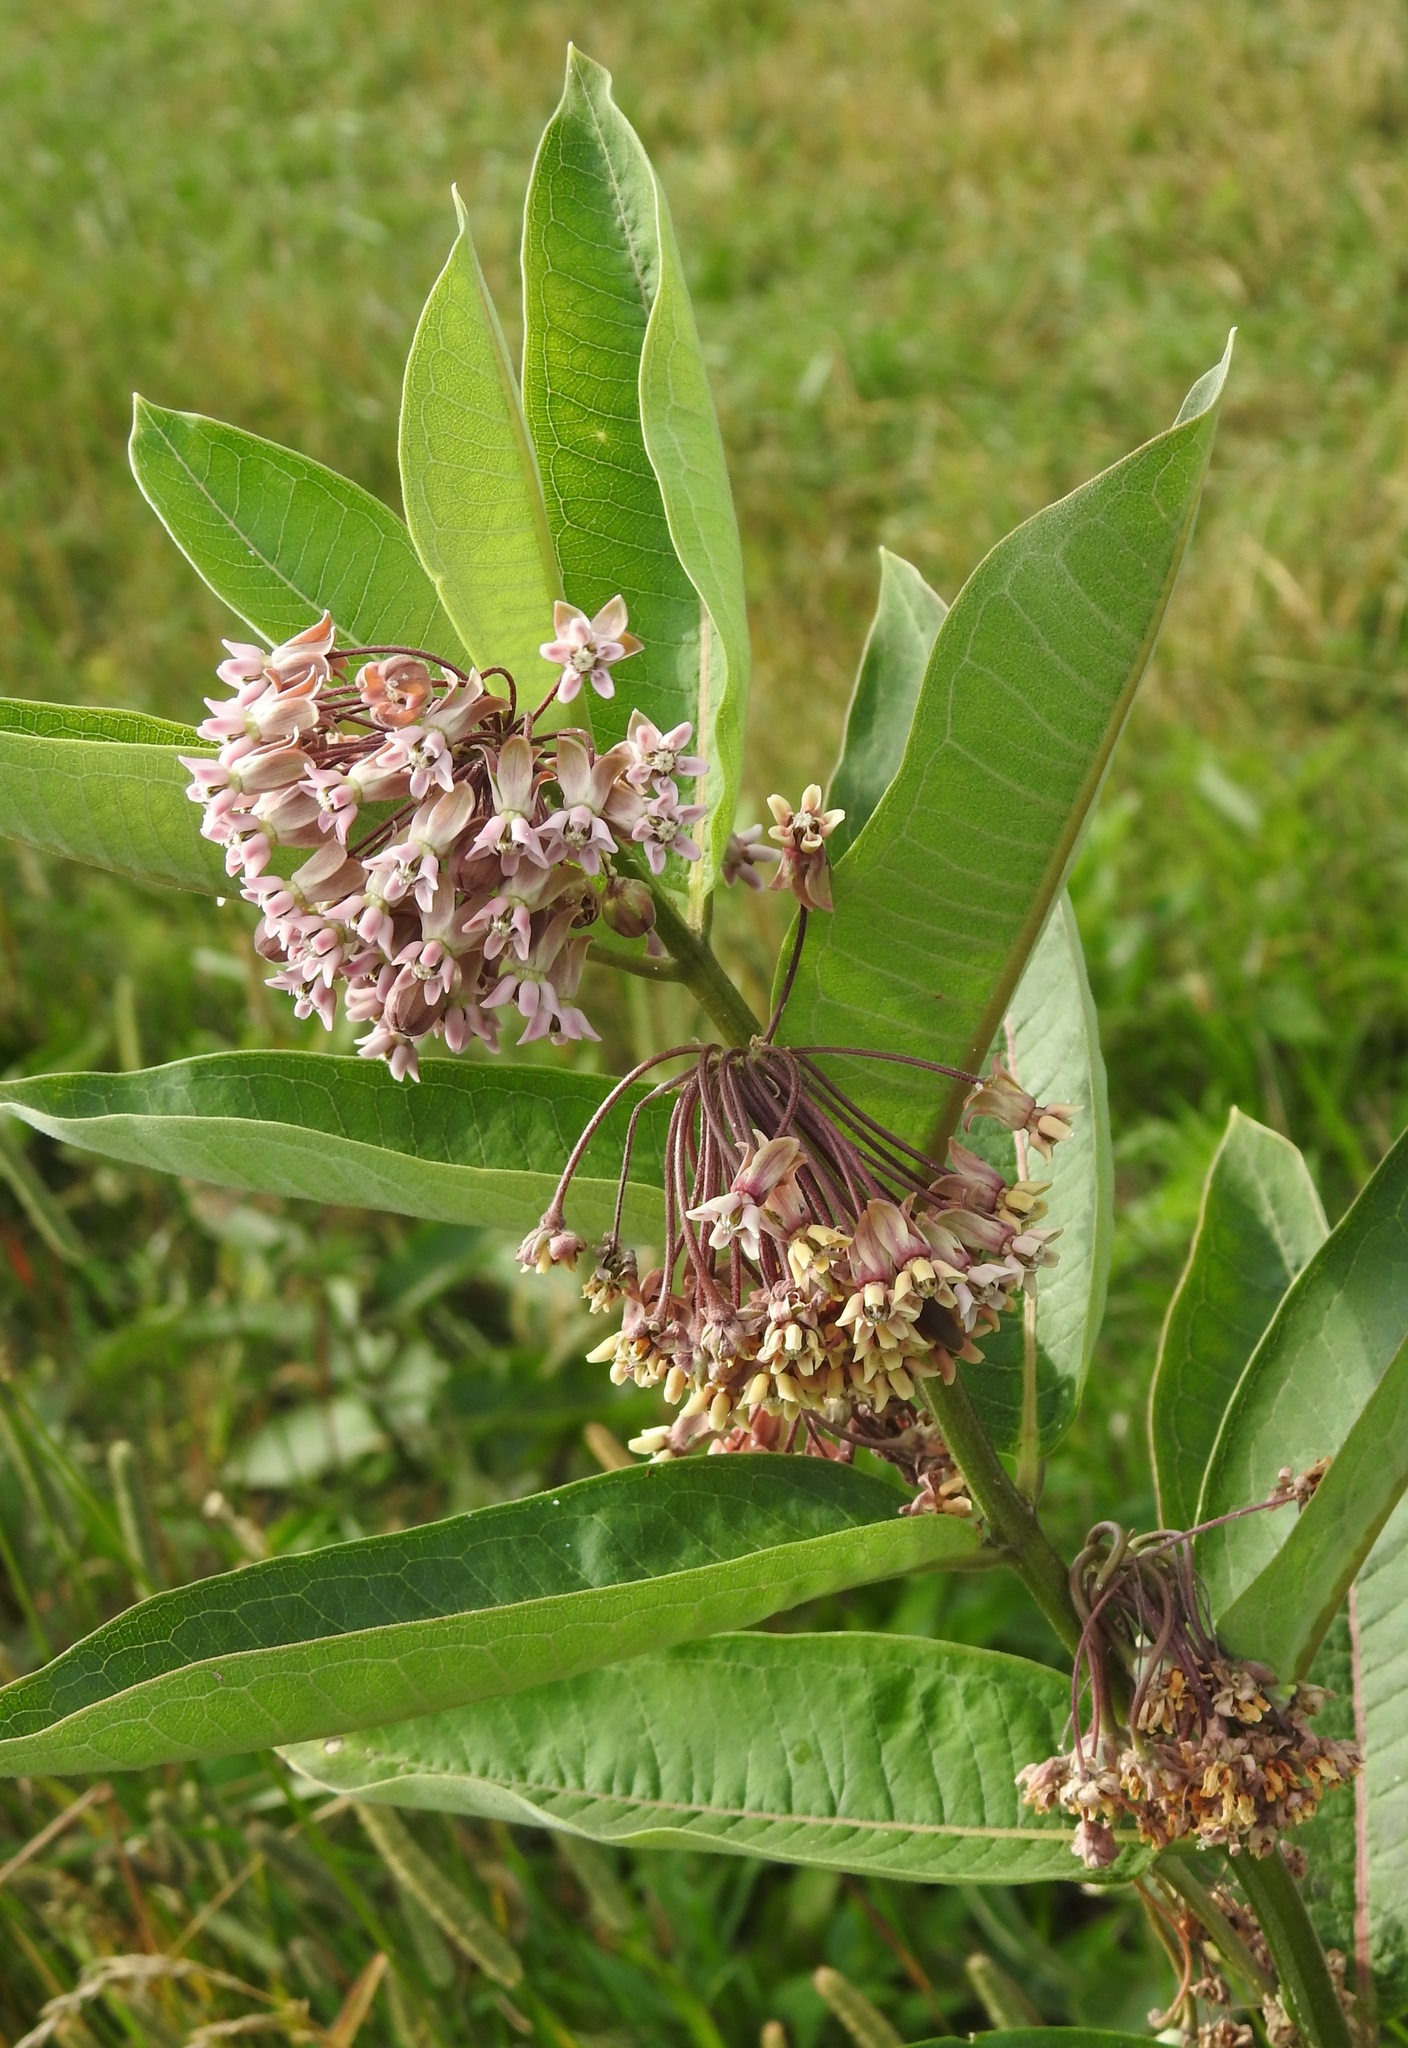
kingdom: Plantae
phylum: Tracheophyta
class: Magnoliopsida
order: Gentianales
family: Apocynaceae
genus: Asclepias
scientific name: Asclepias syriaca
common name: Common milkweed
